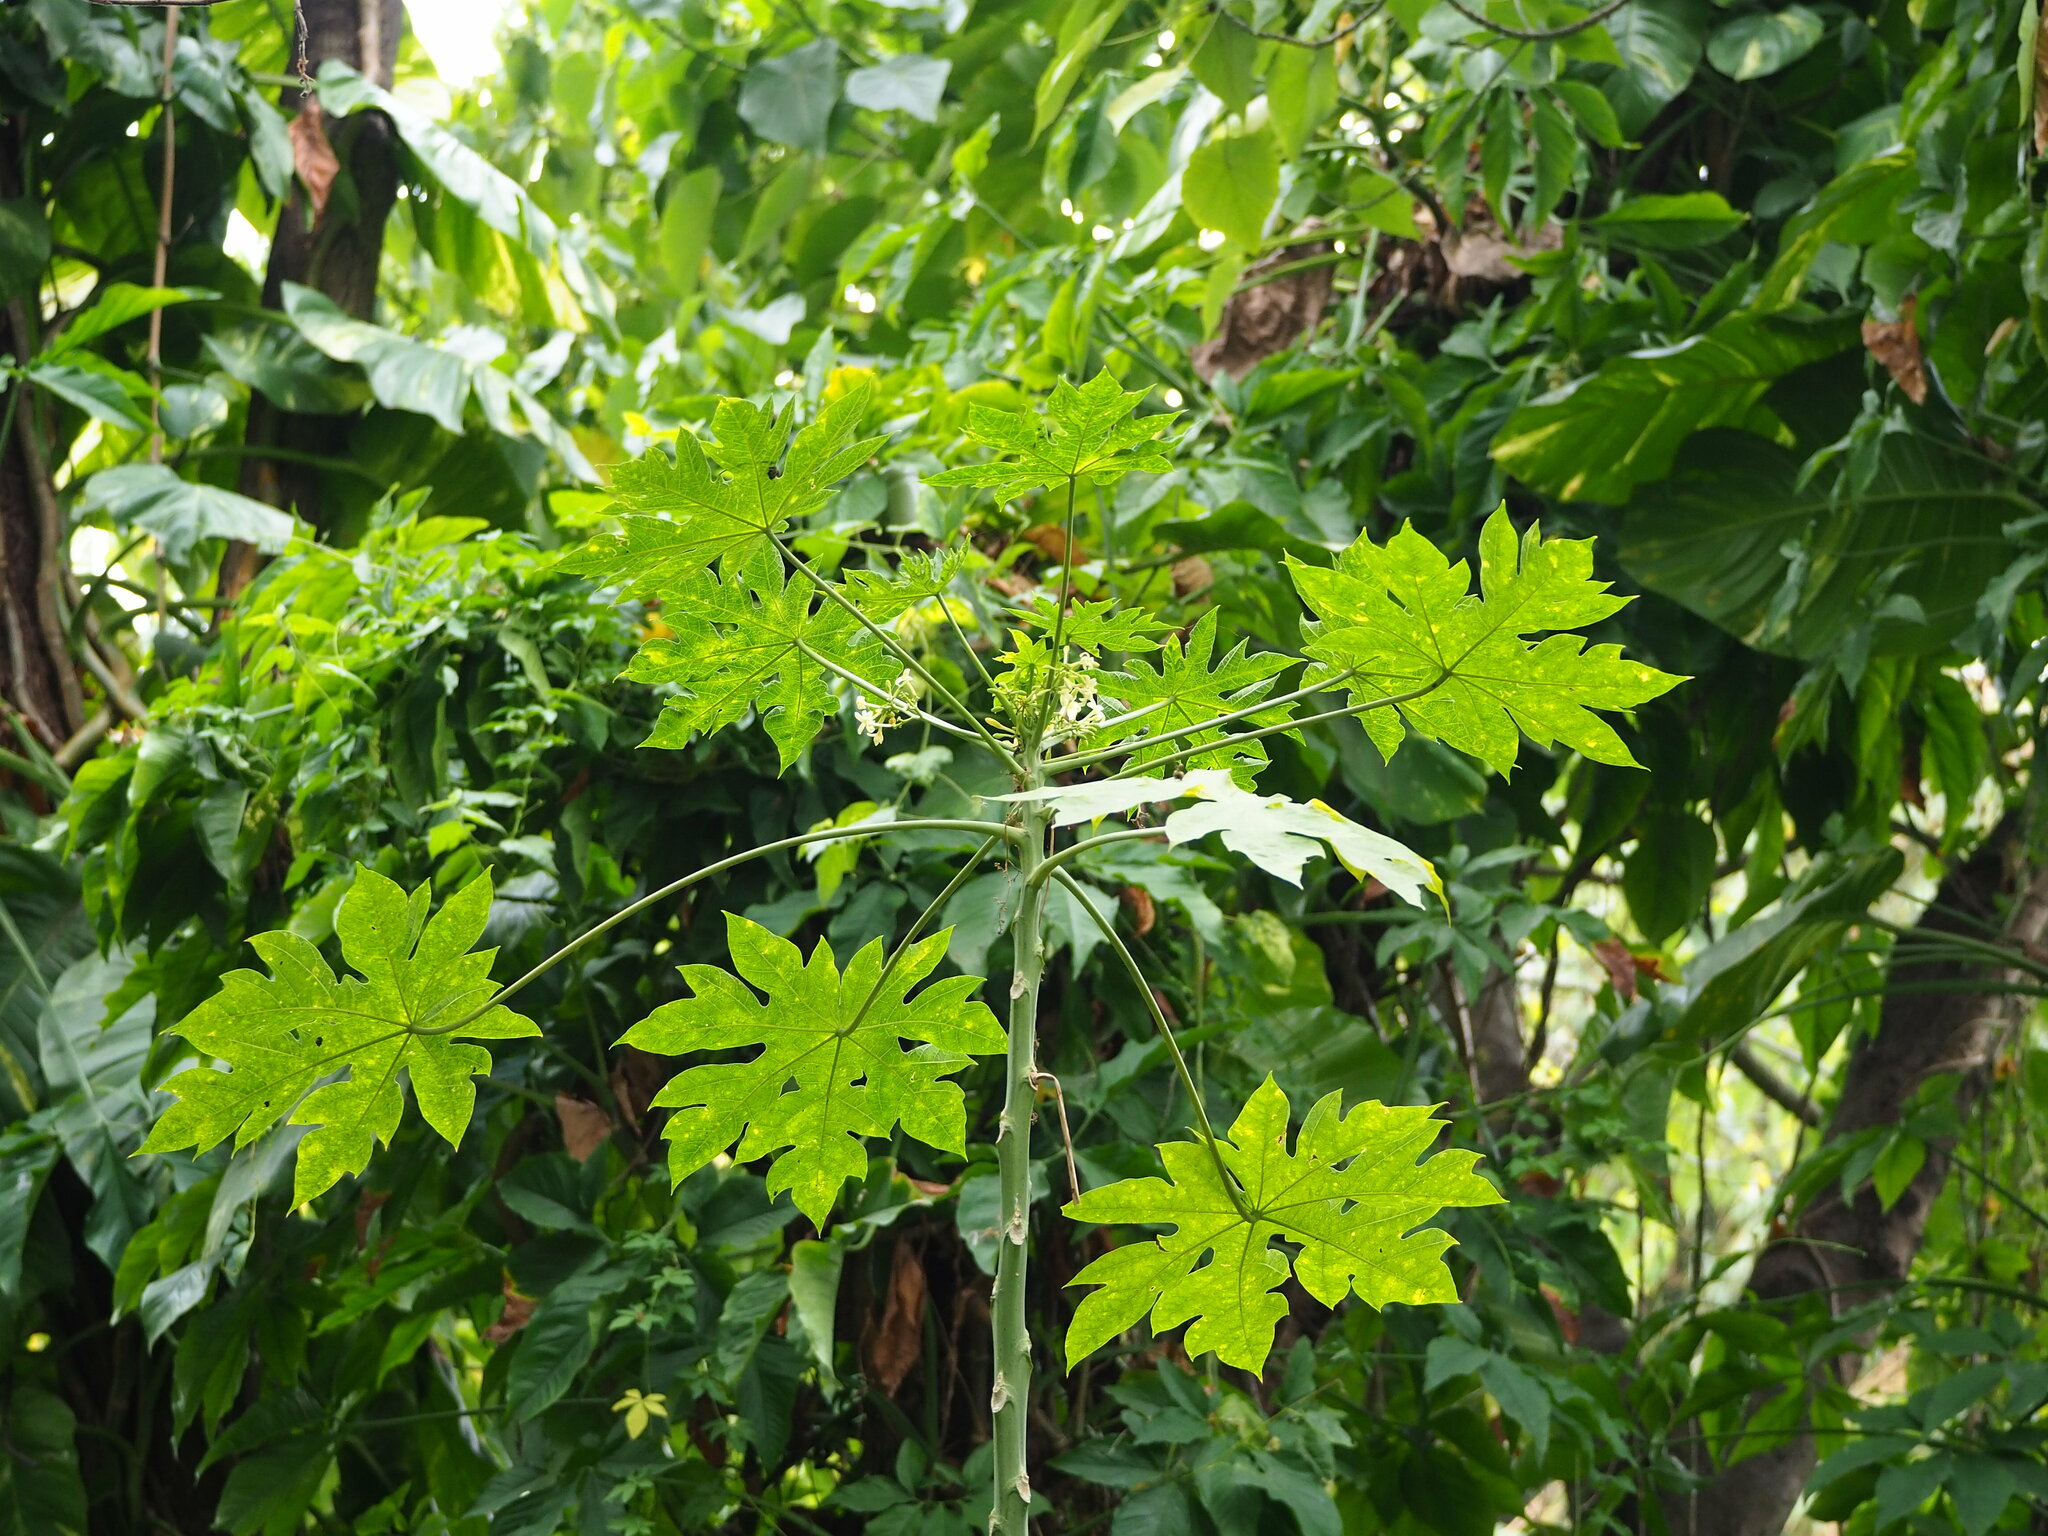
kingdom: Plantae
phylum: Tracheophyta
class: Magnoliopsida
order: Brassicales
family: Caricaceae
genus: Carica
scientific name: Carica papaya
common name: Papaya
